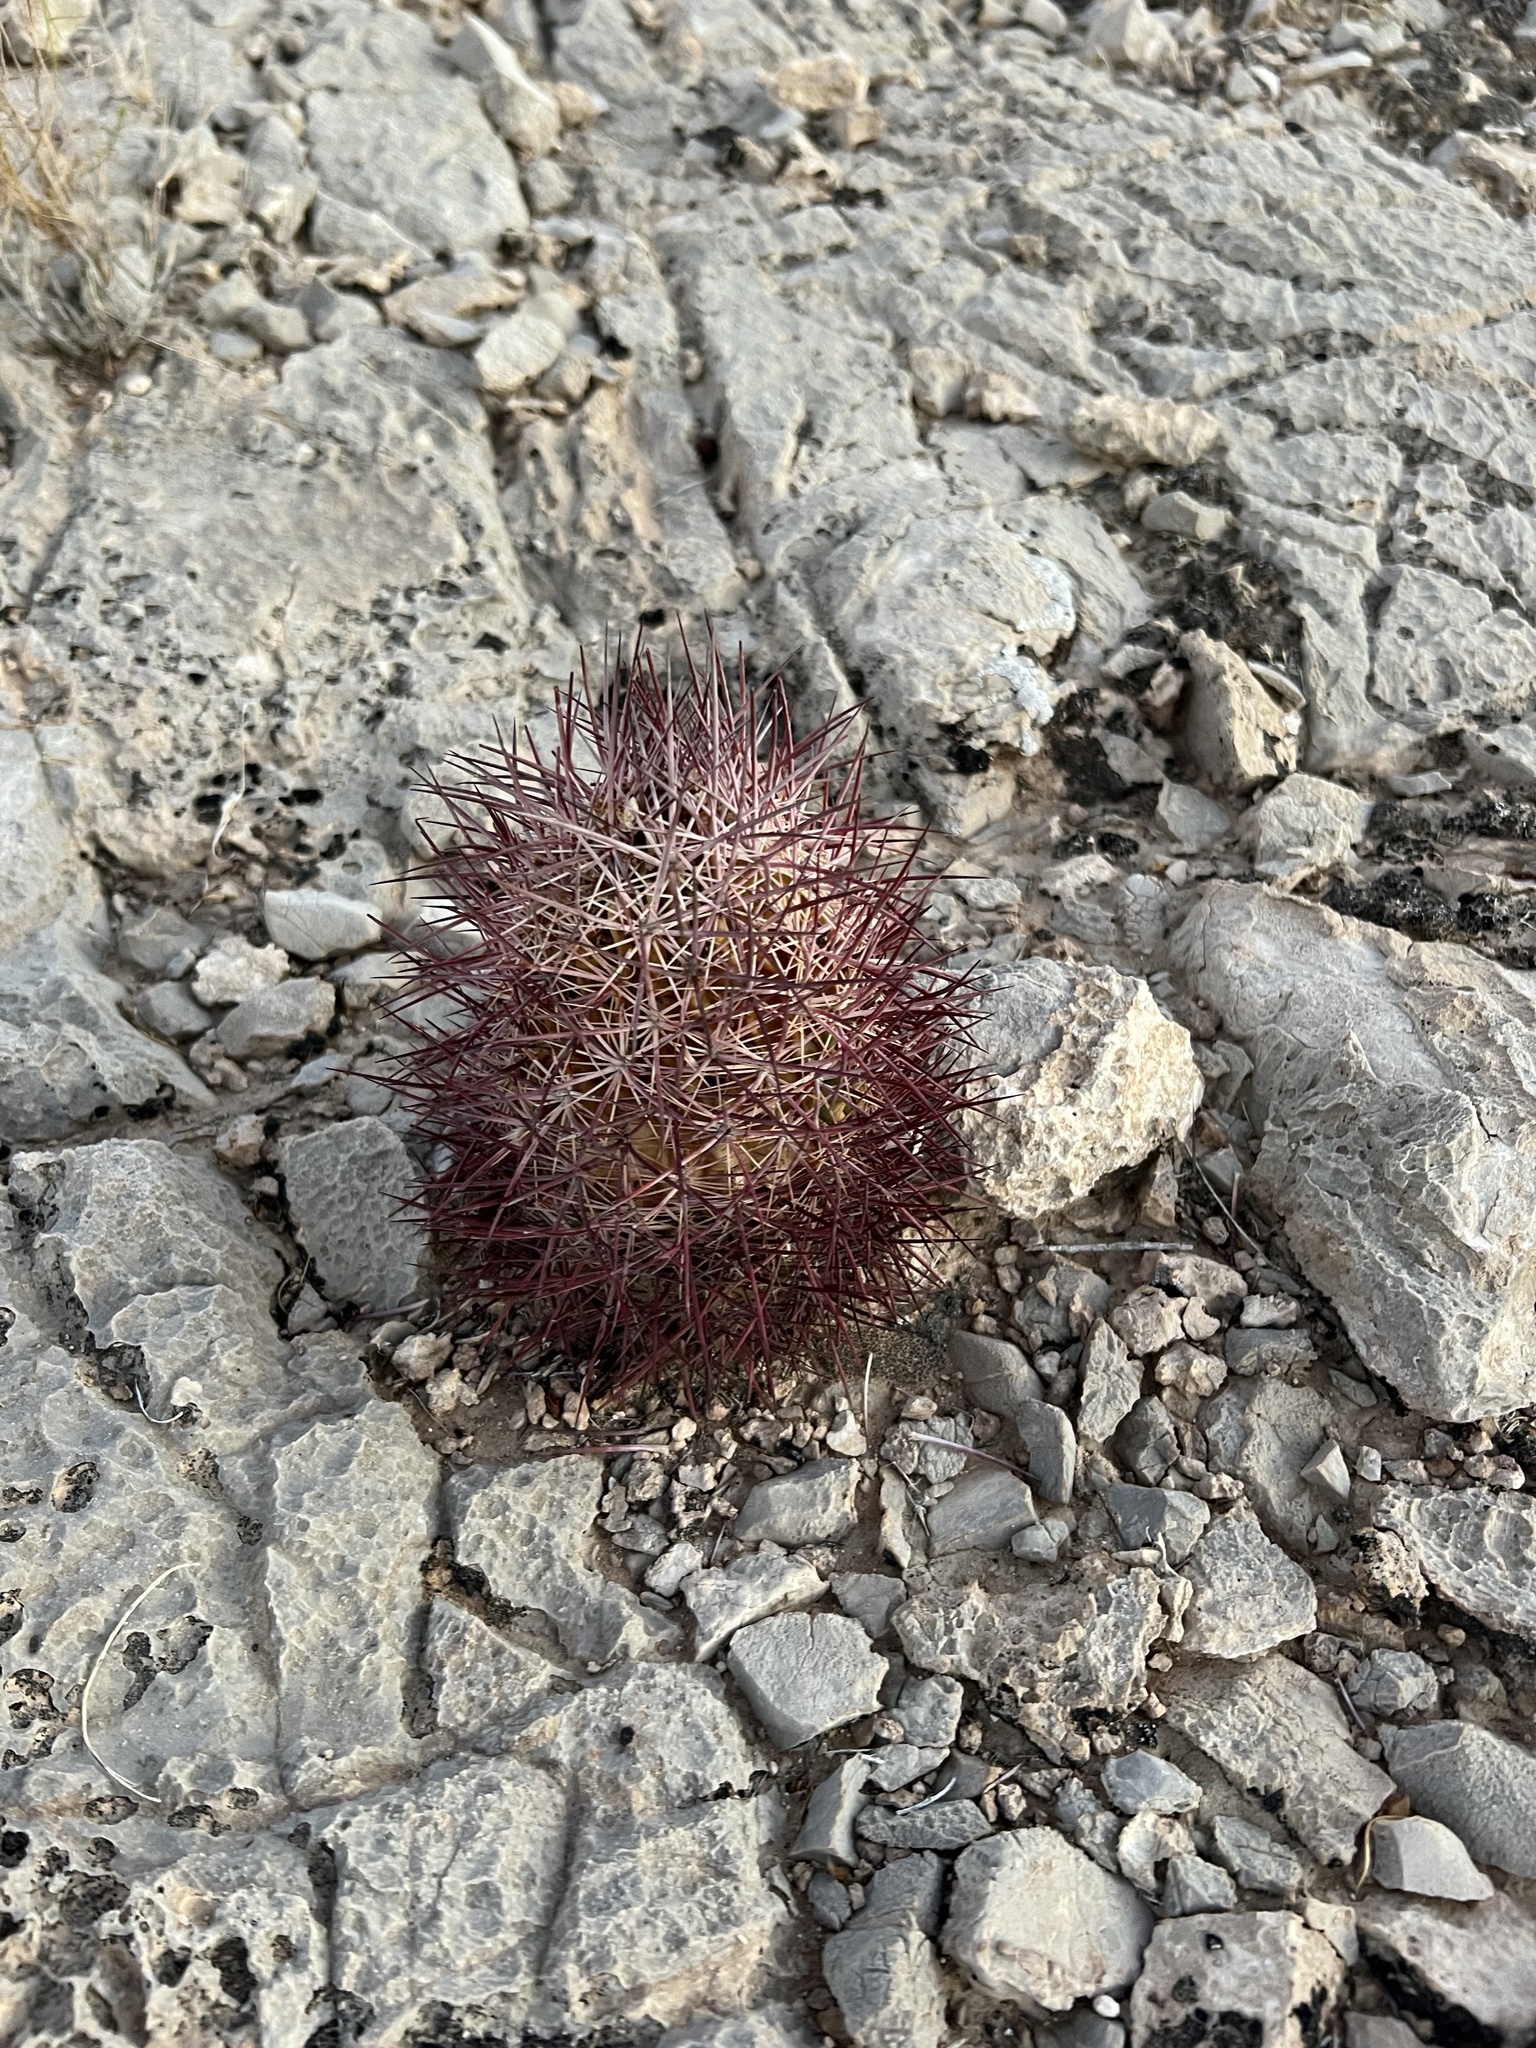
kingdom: Plantae
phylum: Tracheophyta
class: Magnoliopsida
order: Caryophyllales
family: Cactaceae
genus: Sclerocactus
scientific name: Sclerocactus johnsonii
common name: Eight-spine fishhook cactus
